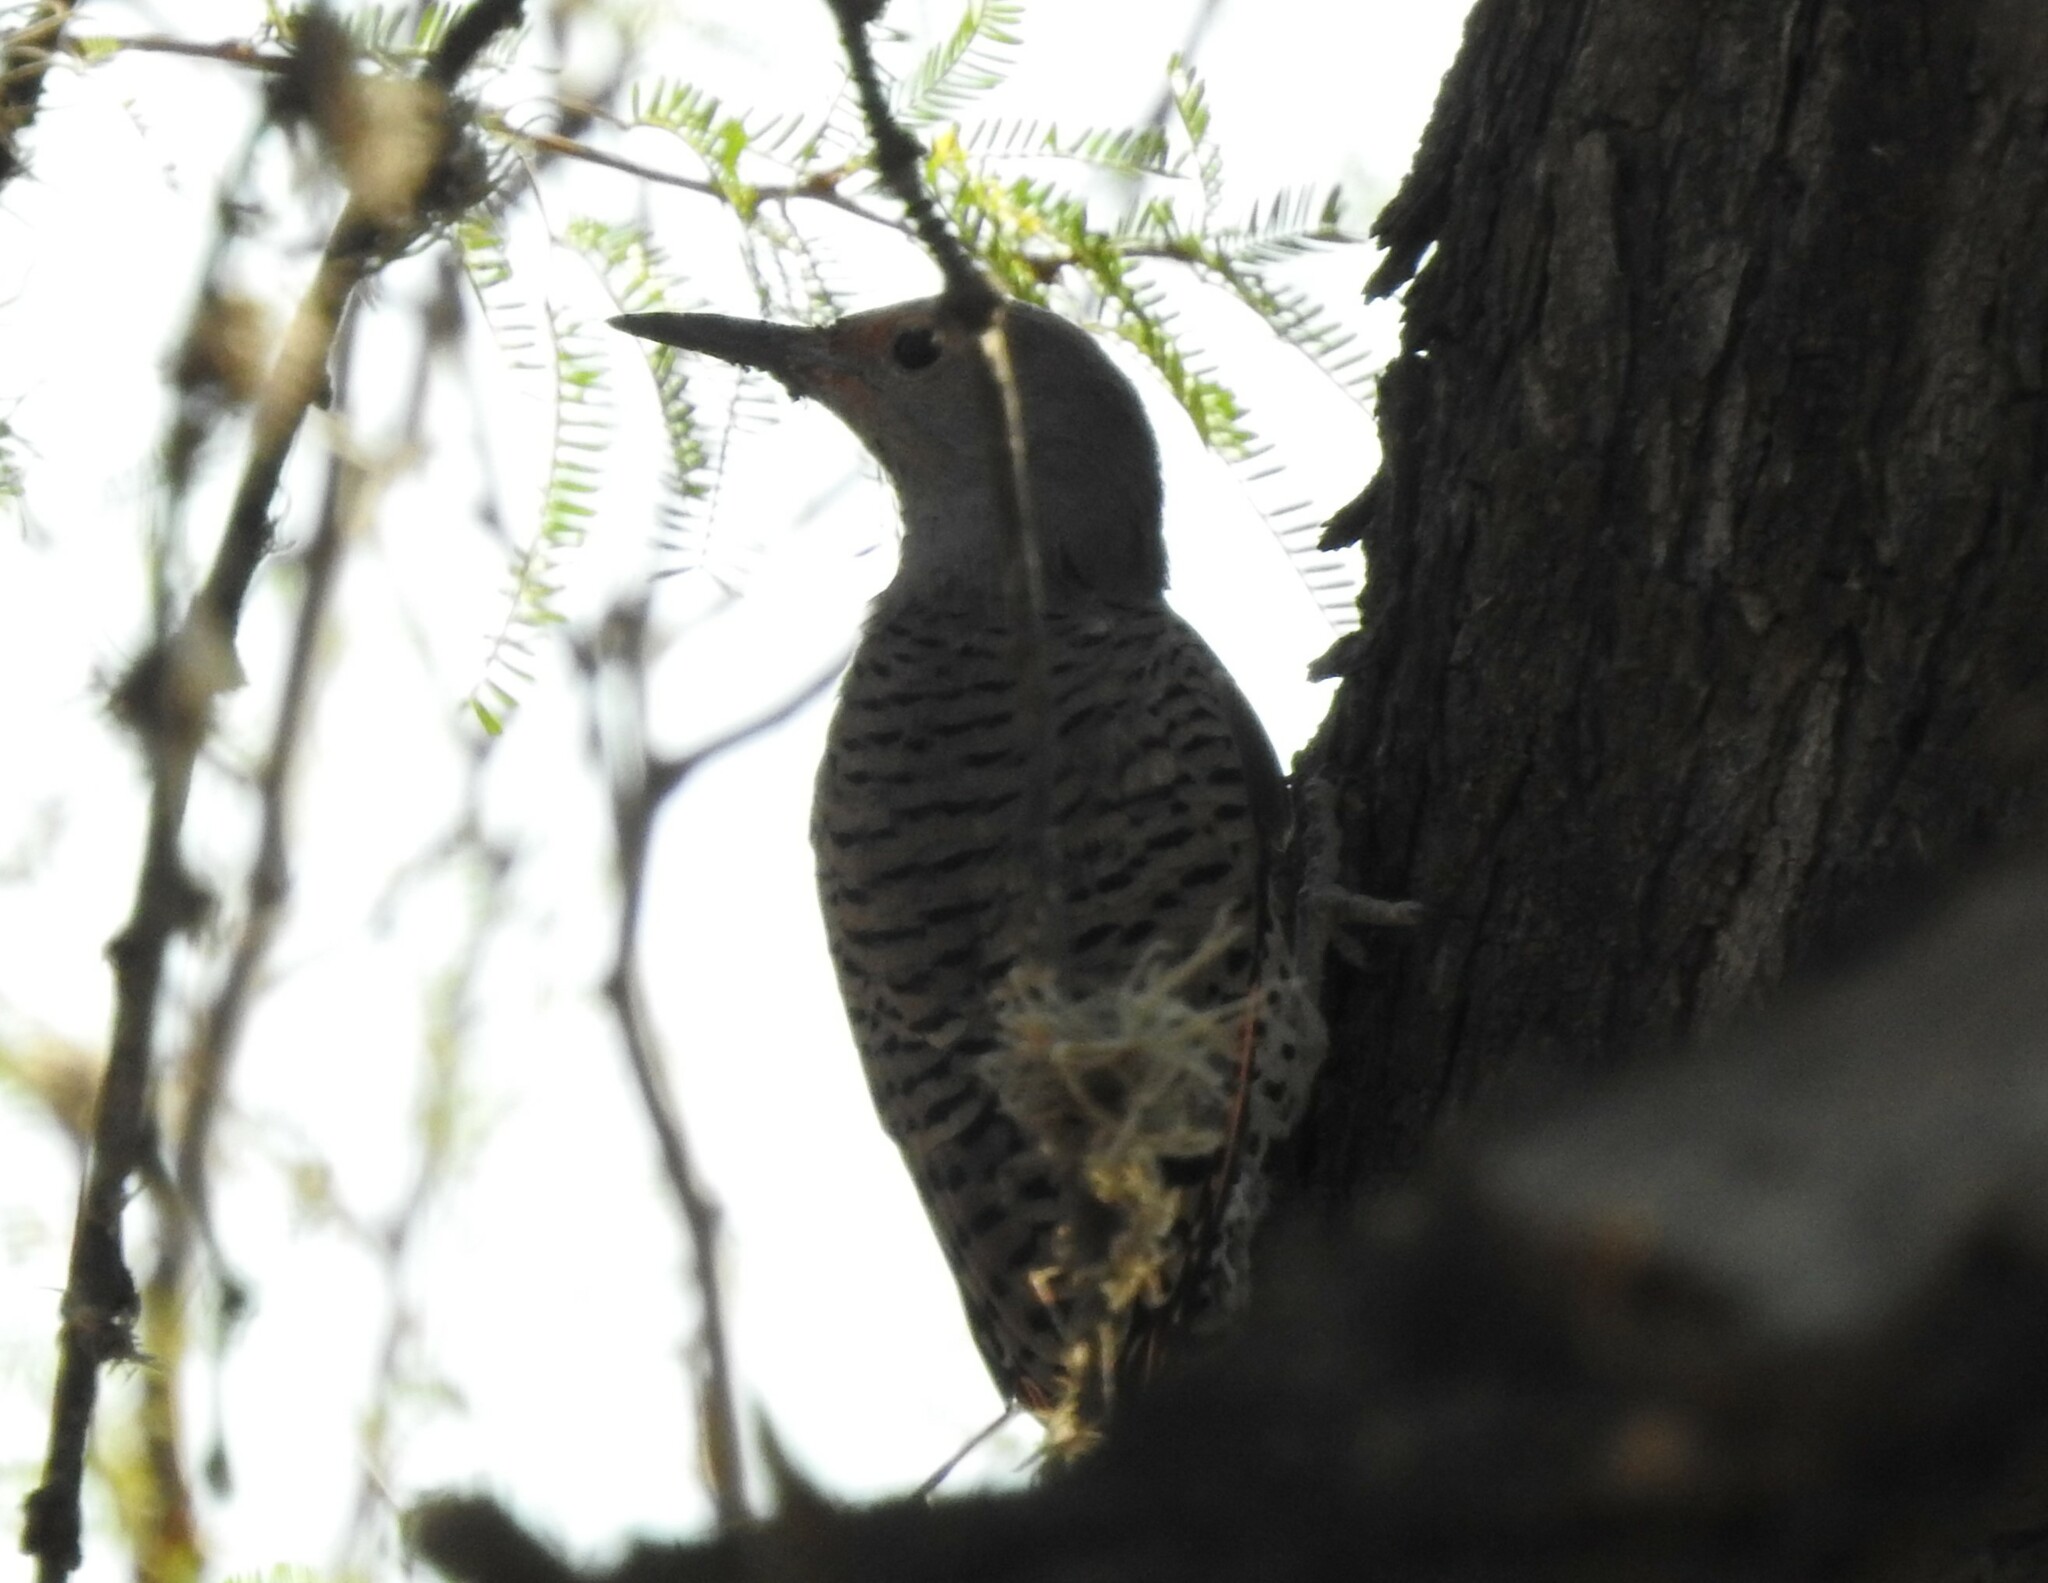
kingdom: Animalia
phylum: Chordata
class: Aves
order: Piciformes
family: Picidae
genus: Colaptes
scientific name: Colaptes auratus
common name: Northern flicker
